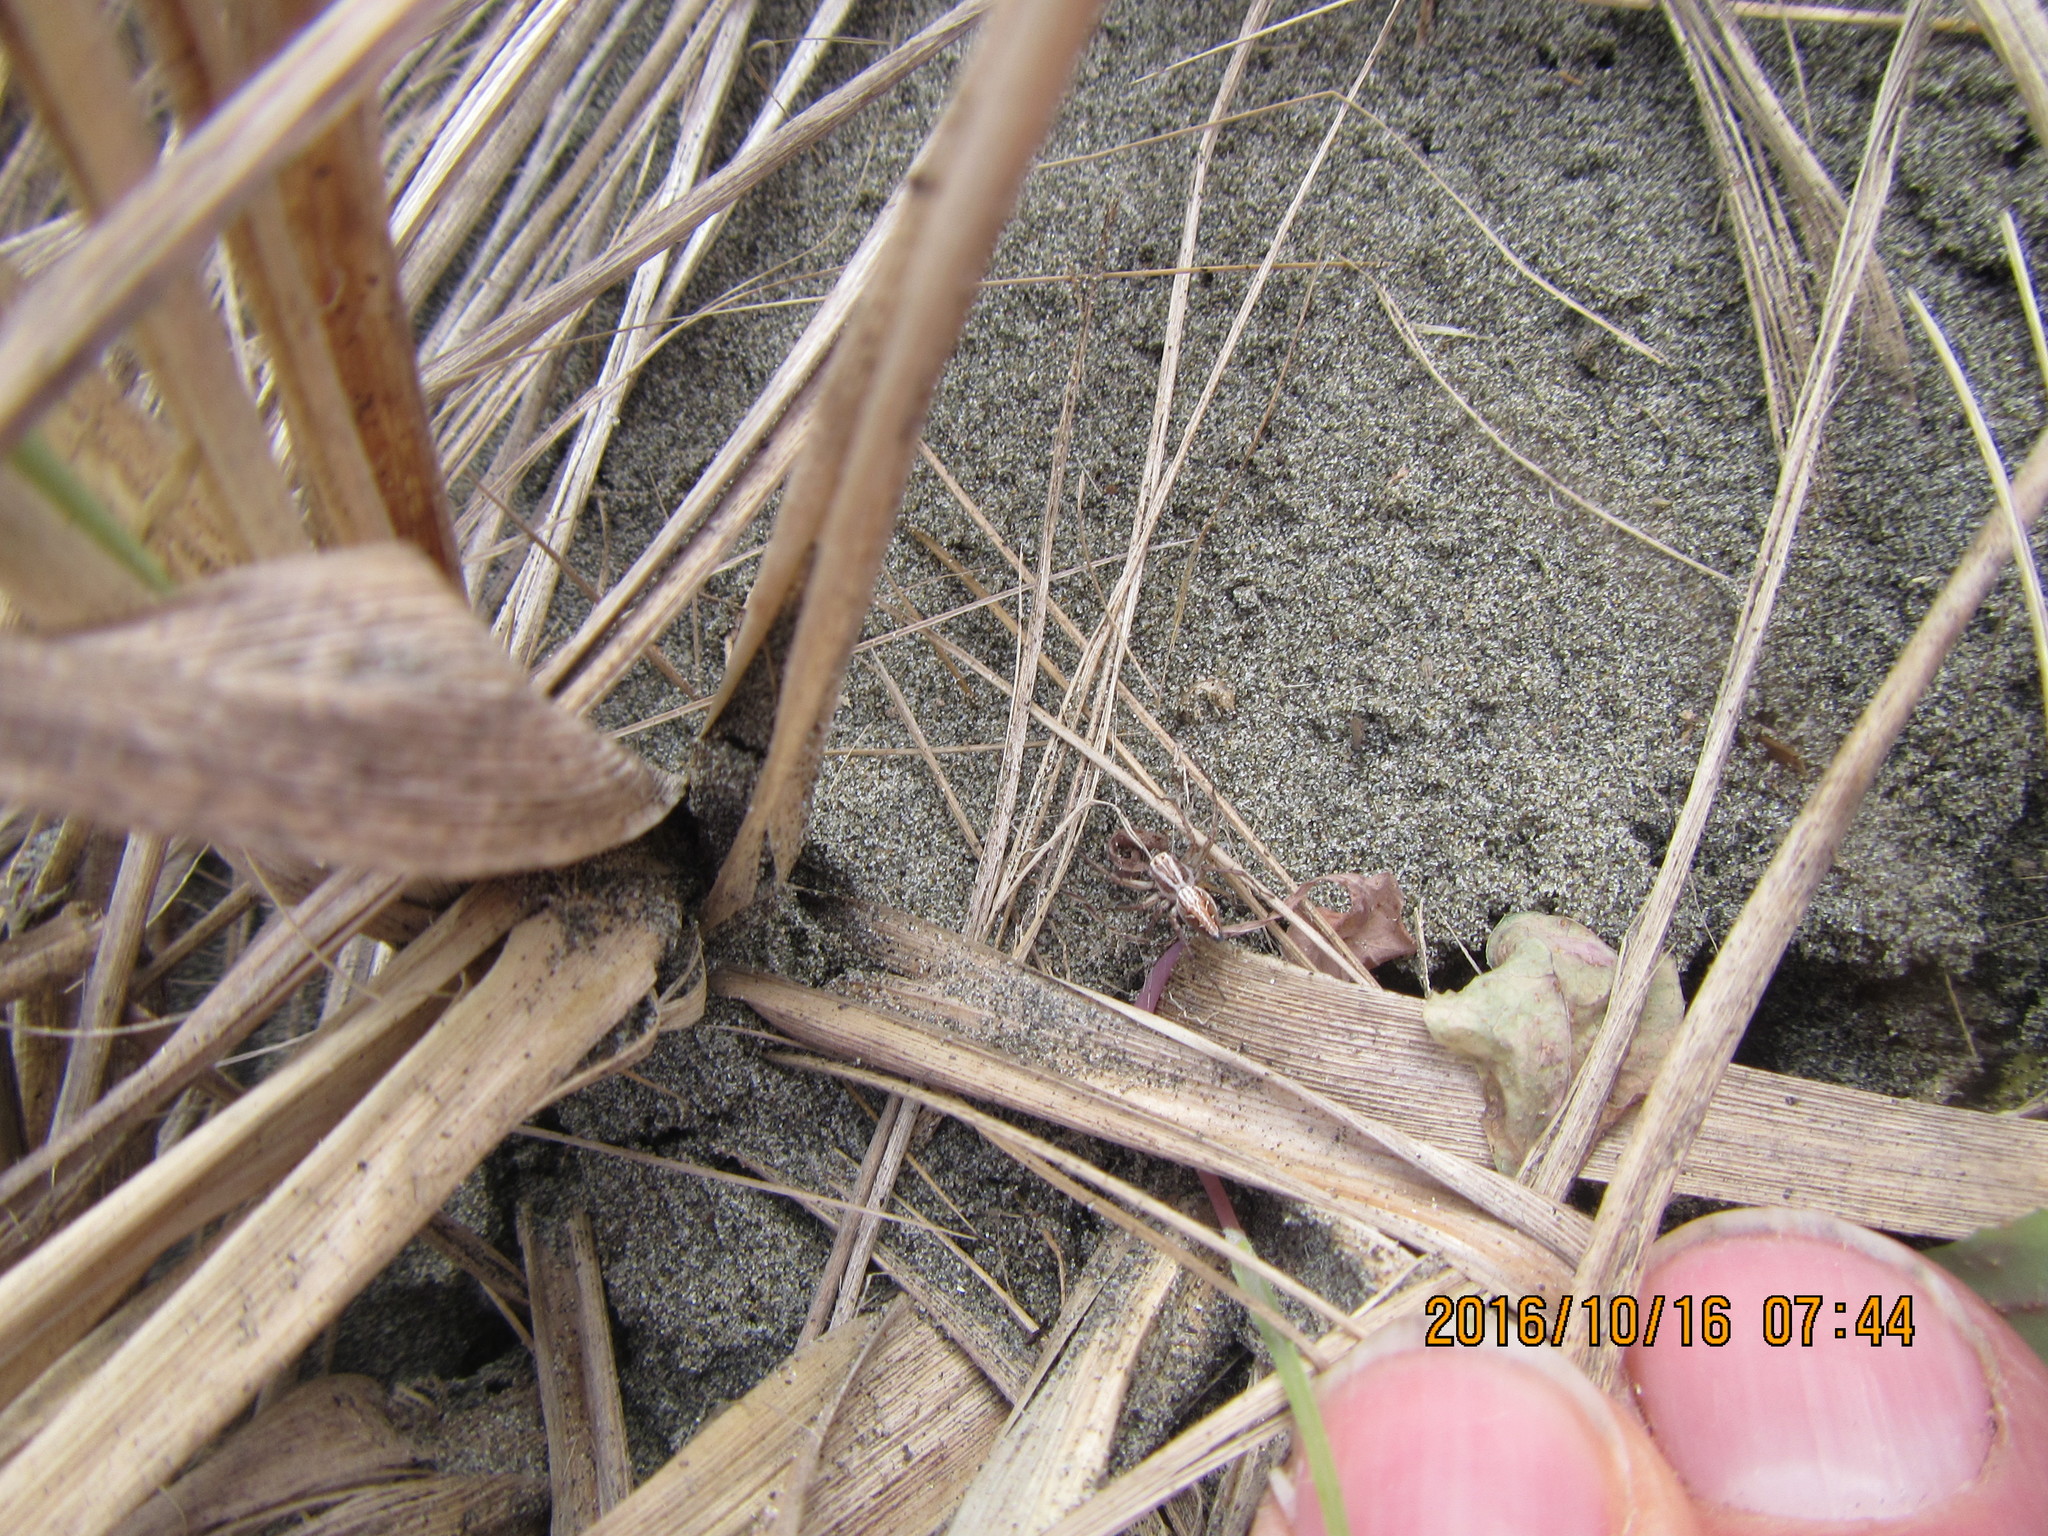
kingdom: Animalia
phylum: Arthropoda
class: Arachnida
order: Araneae
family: Oxyopidae
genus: Oxyopes
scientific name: Oxyopes gracilipes
